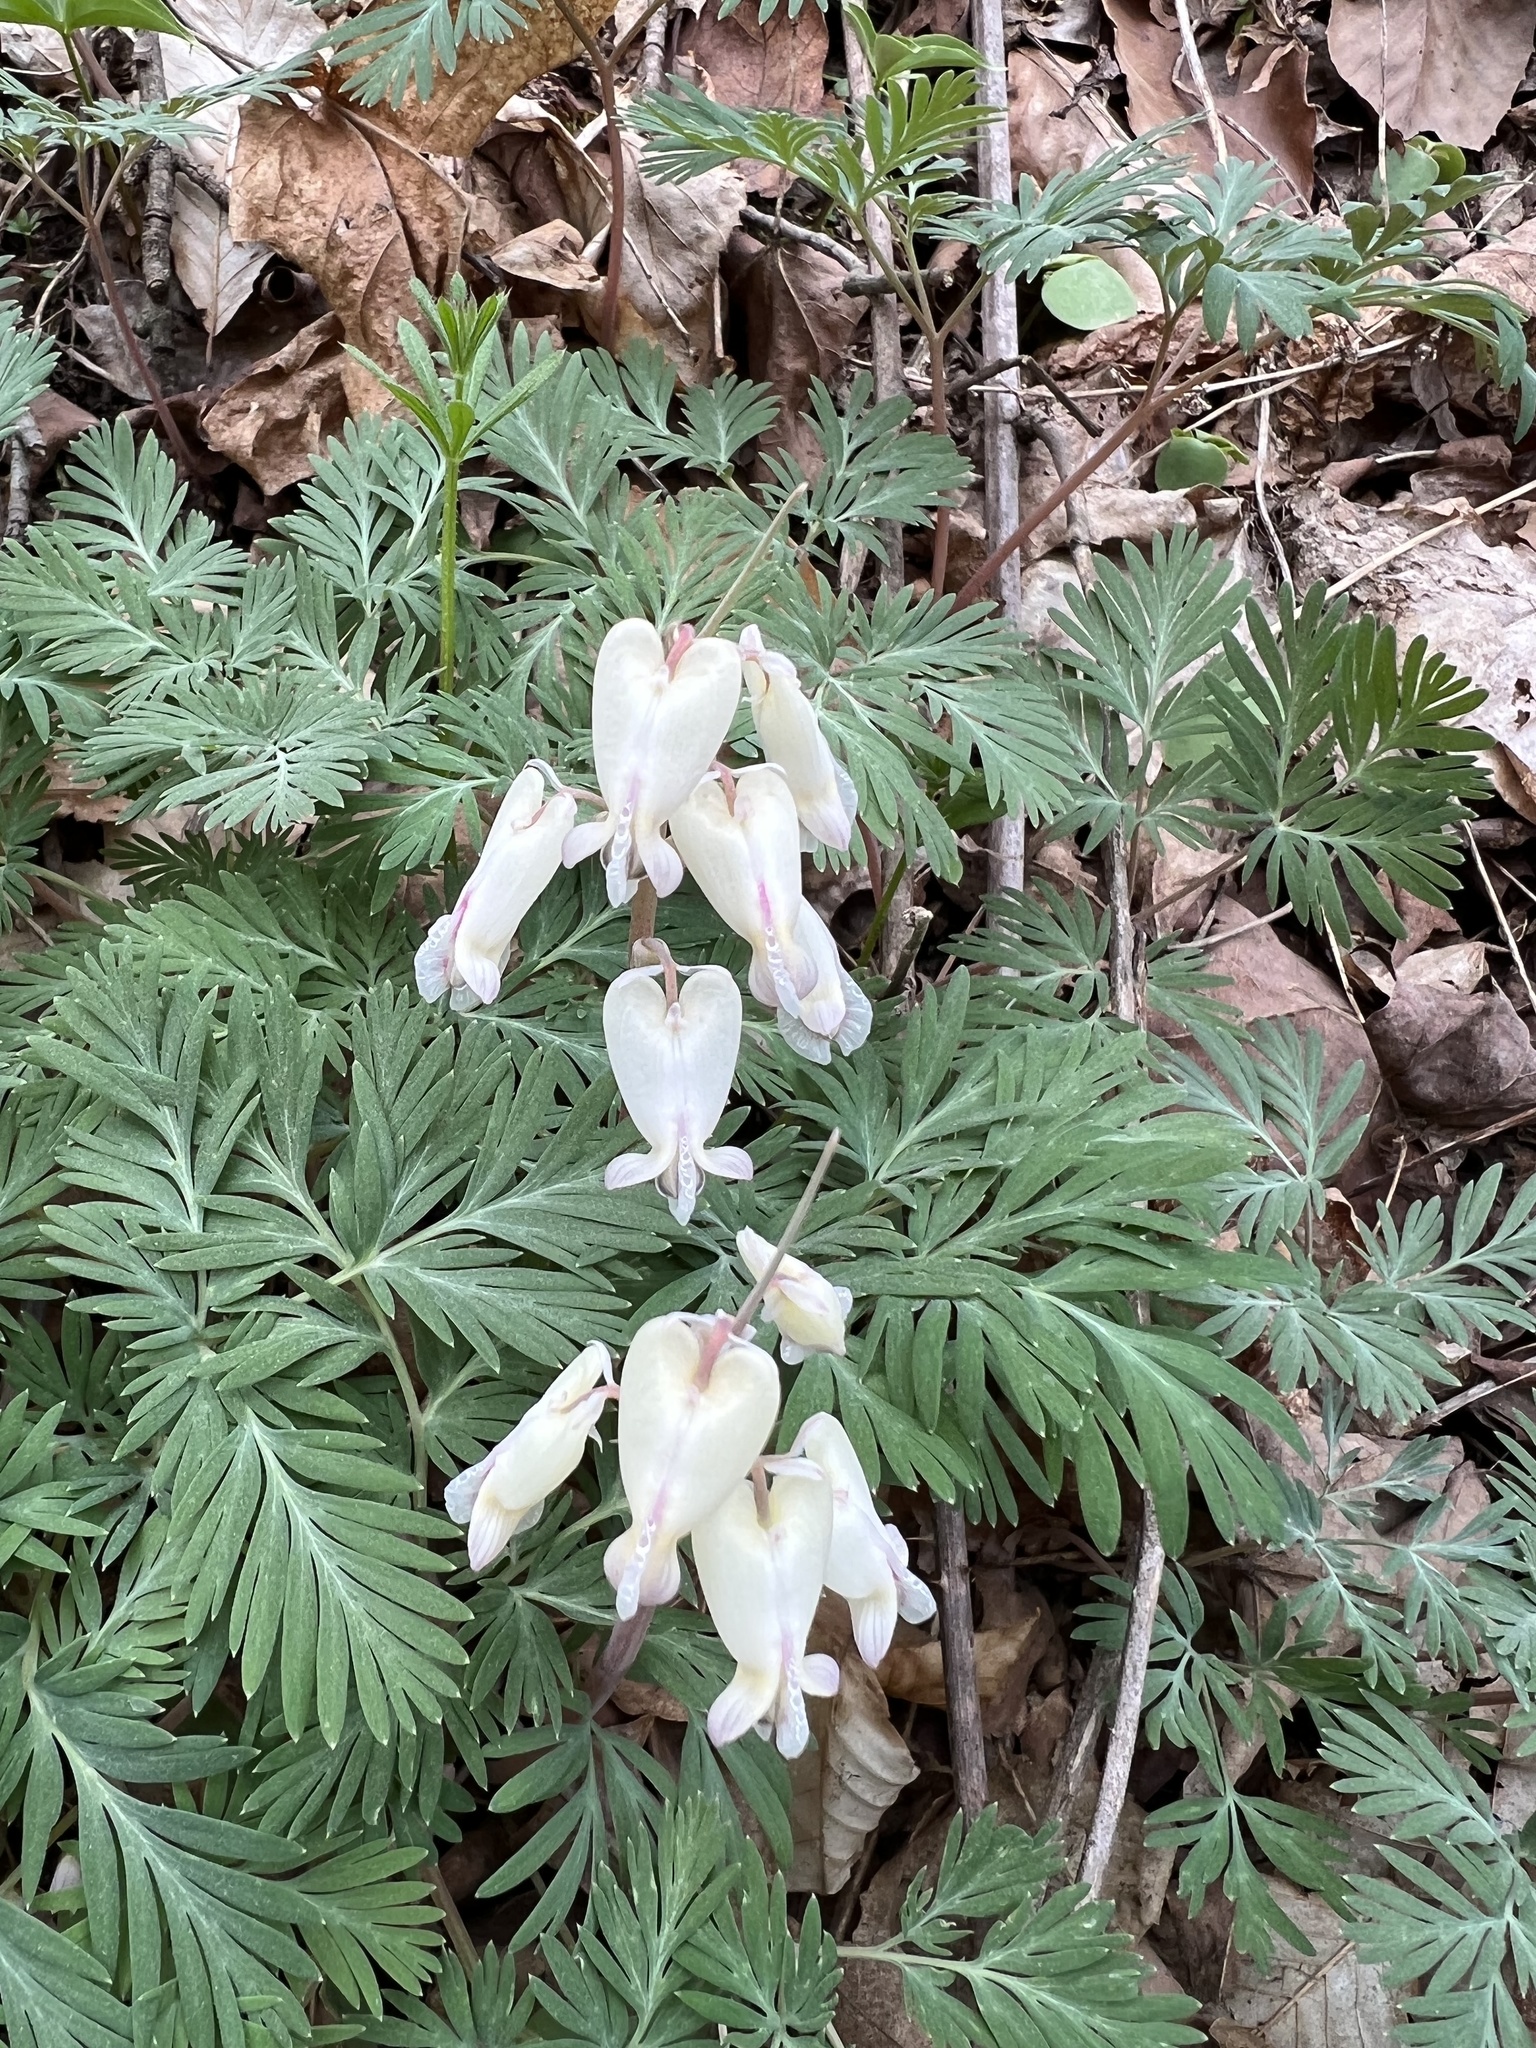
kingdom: Plantae
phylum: Tracheophyta
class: Magnoliopsida
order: Ranunculales
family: Papaveraceae
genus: Dicentra
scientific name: Dicentra canadensis
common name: Squirrel-corn
